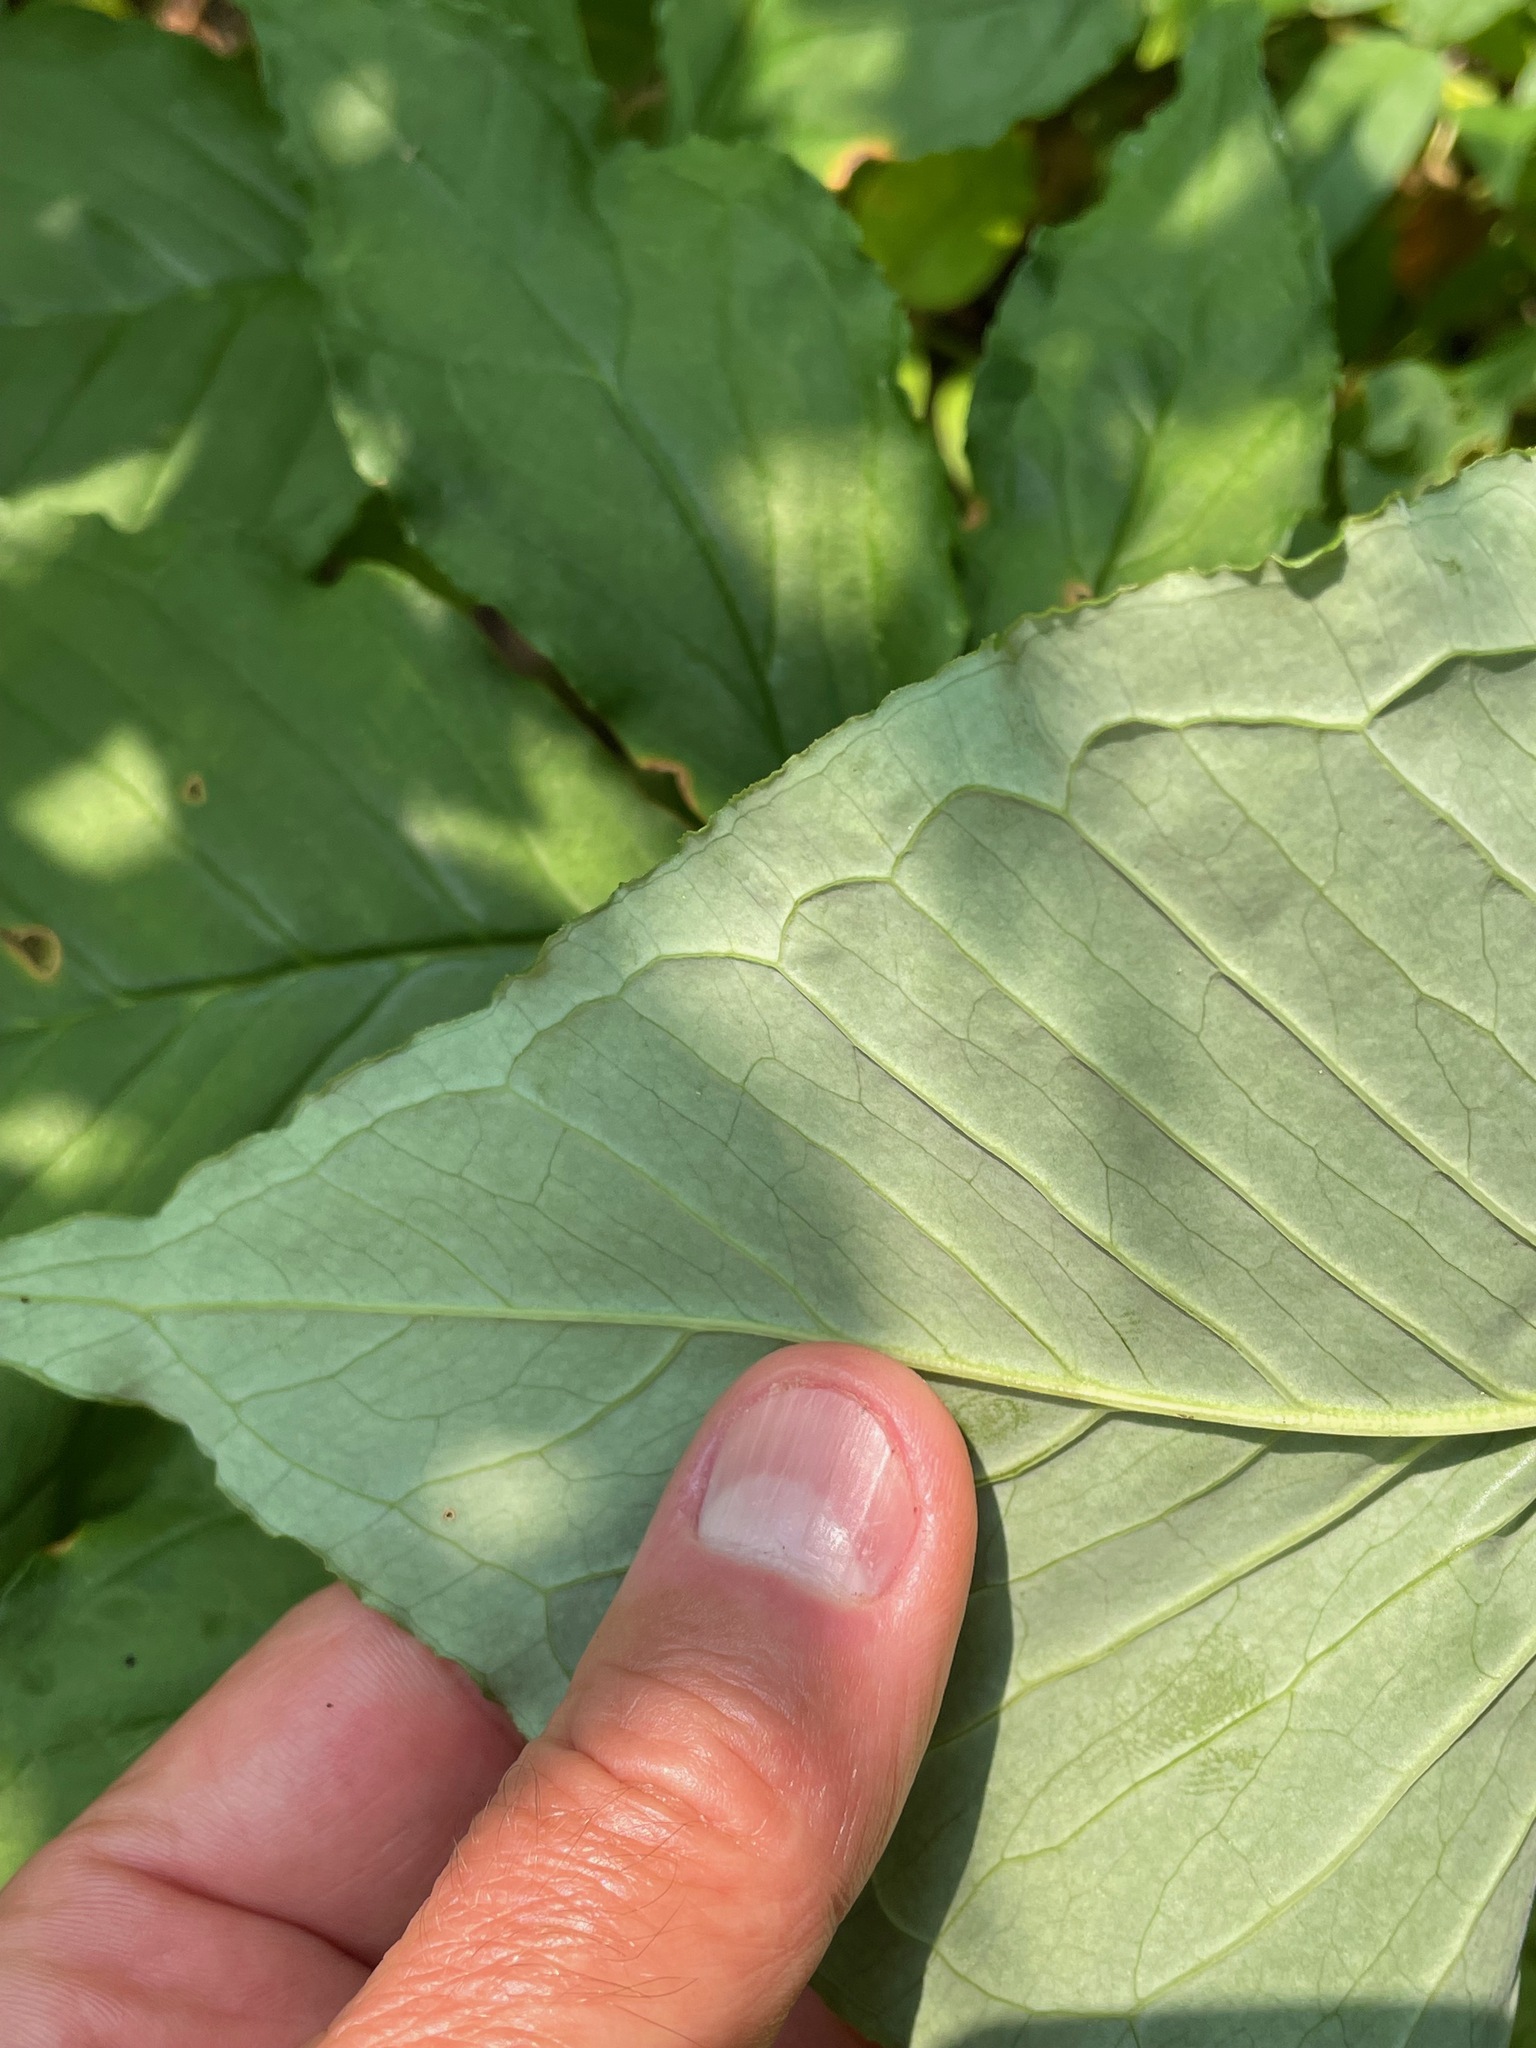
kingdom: Plantae
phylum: Tracheophyta
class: Liliopsida
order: Alismatales
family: Araceae
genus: Arisaema
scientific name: Arisaema triphyllum
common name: Jack-in-the-pulpit
